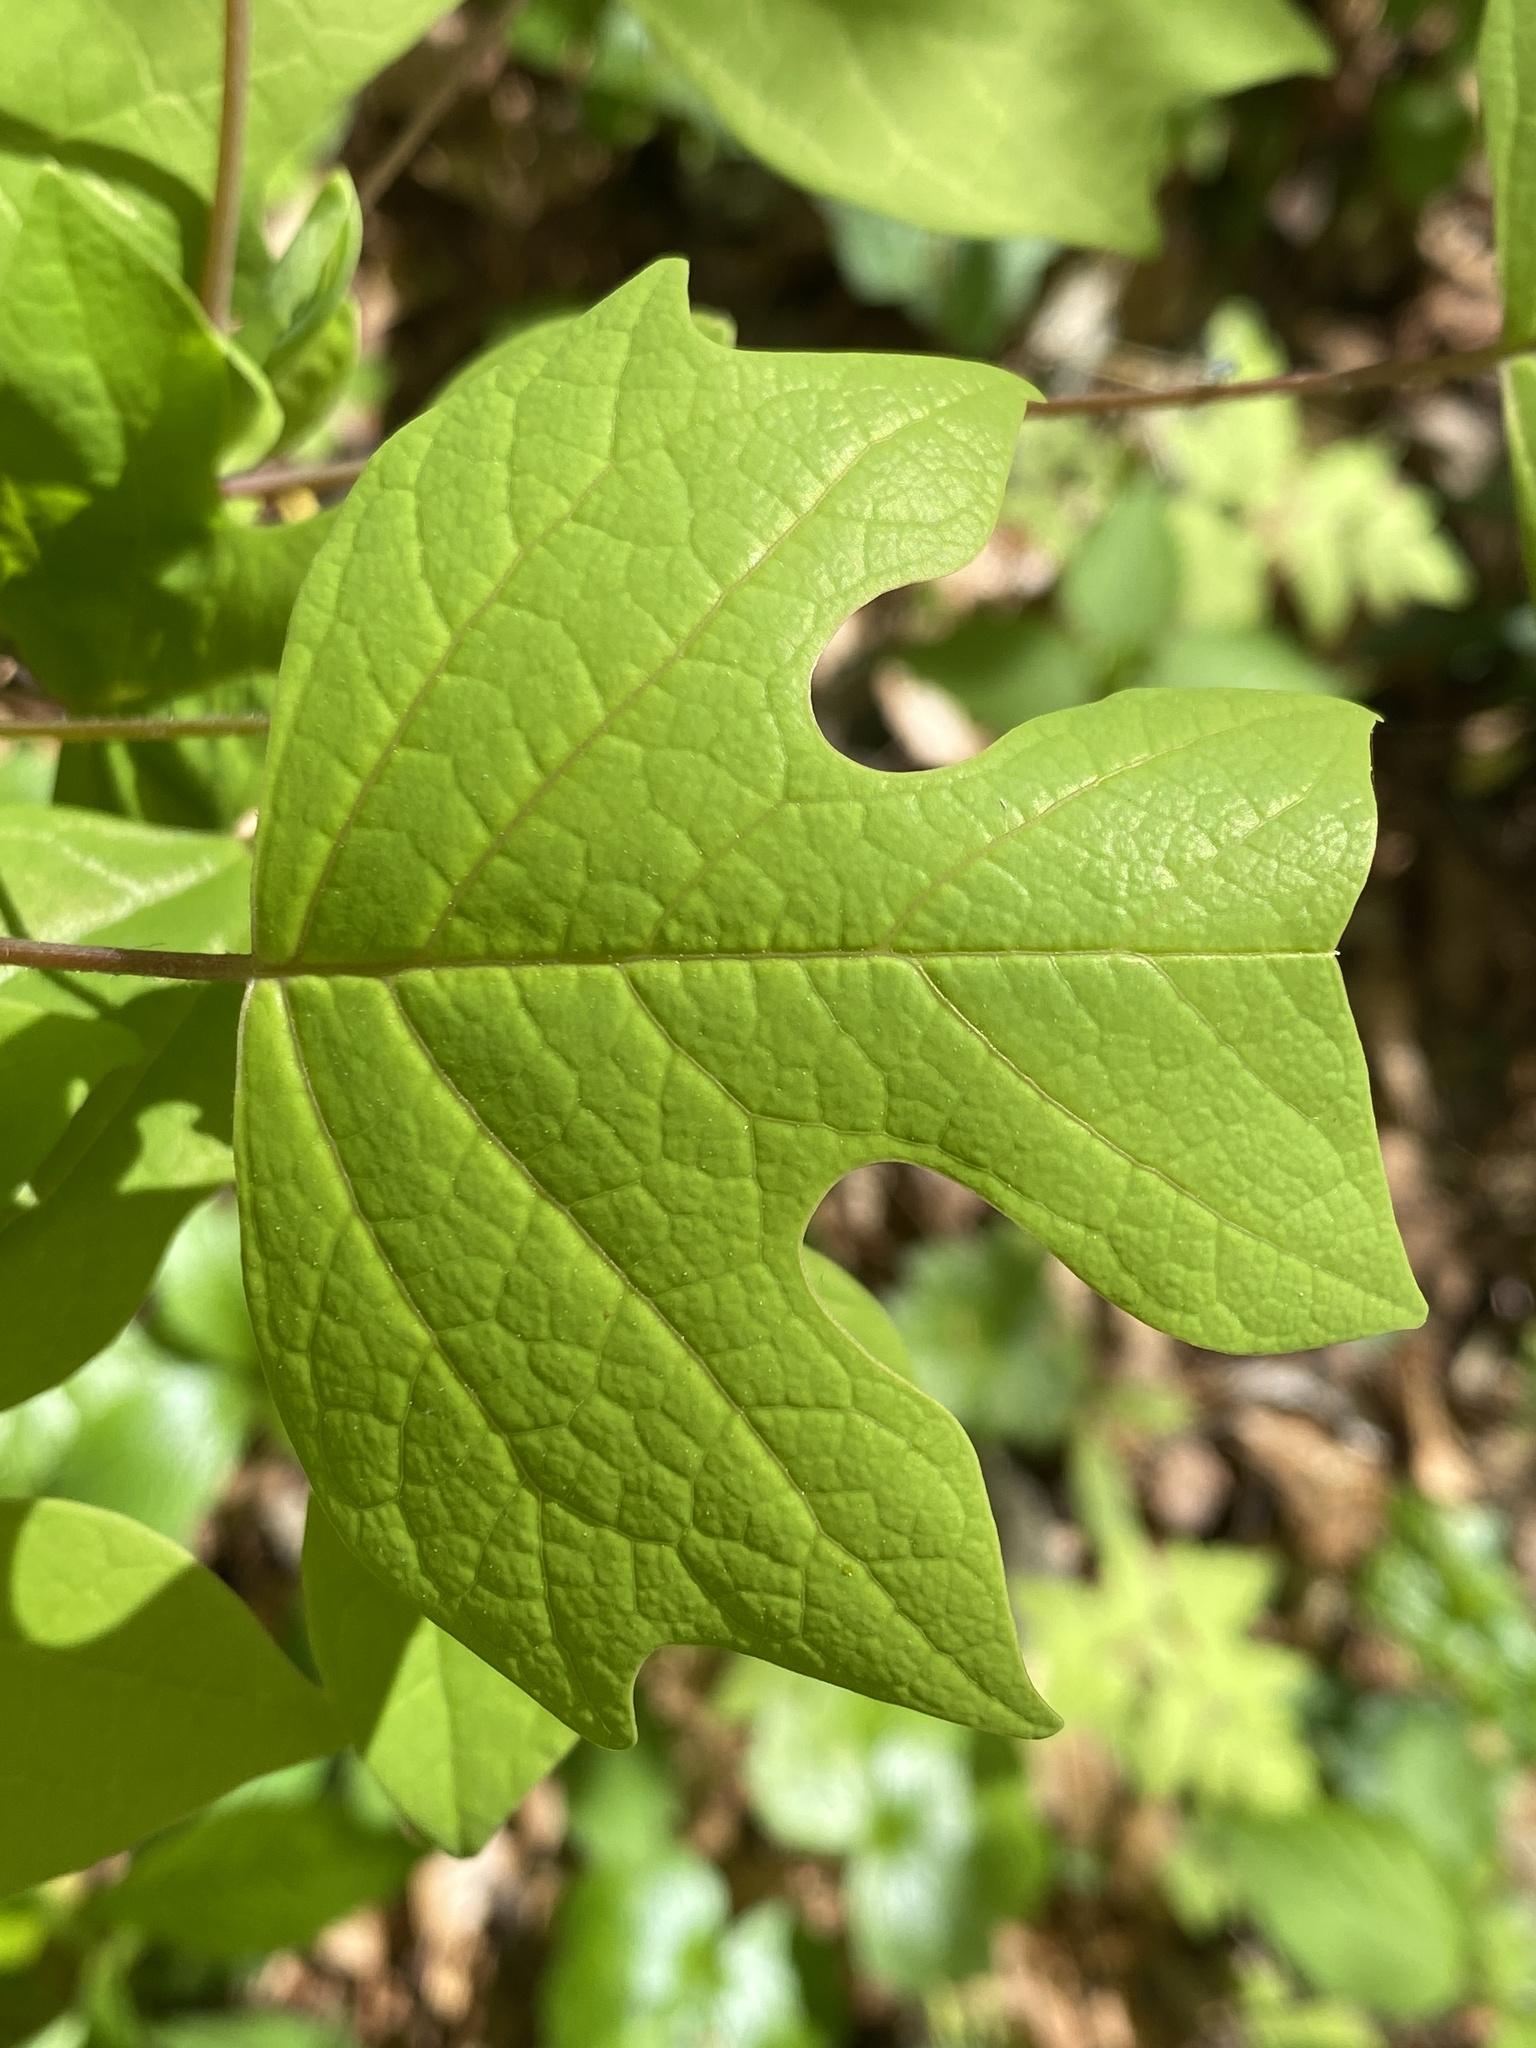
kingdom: Plantae
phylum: Tracheophyta
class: Magnoliopsida
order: Magnoliales
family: Magnoliaceae
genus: Liriodendron
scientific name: Liriodendron tulipifera
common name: Tulip tree
